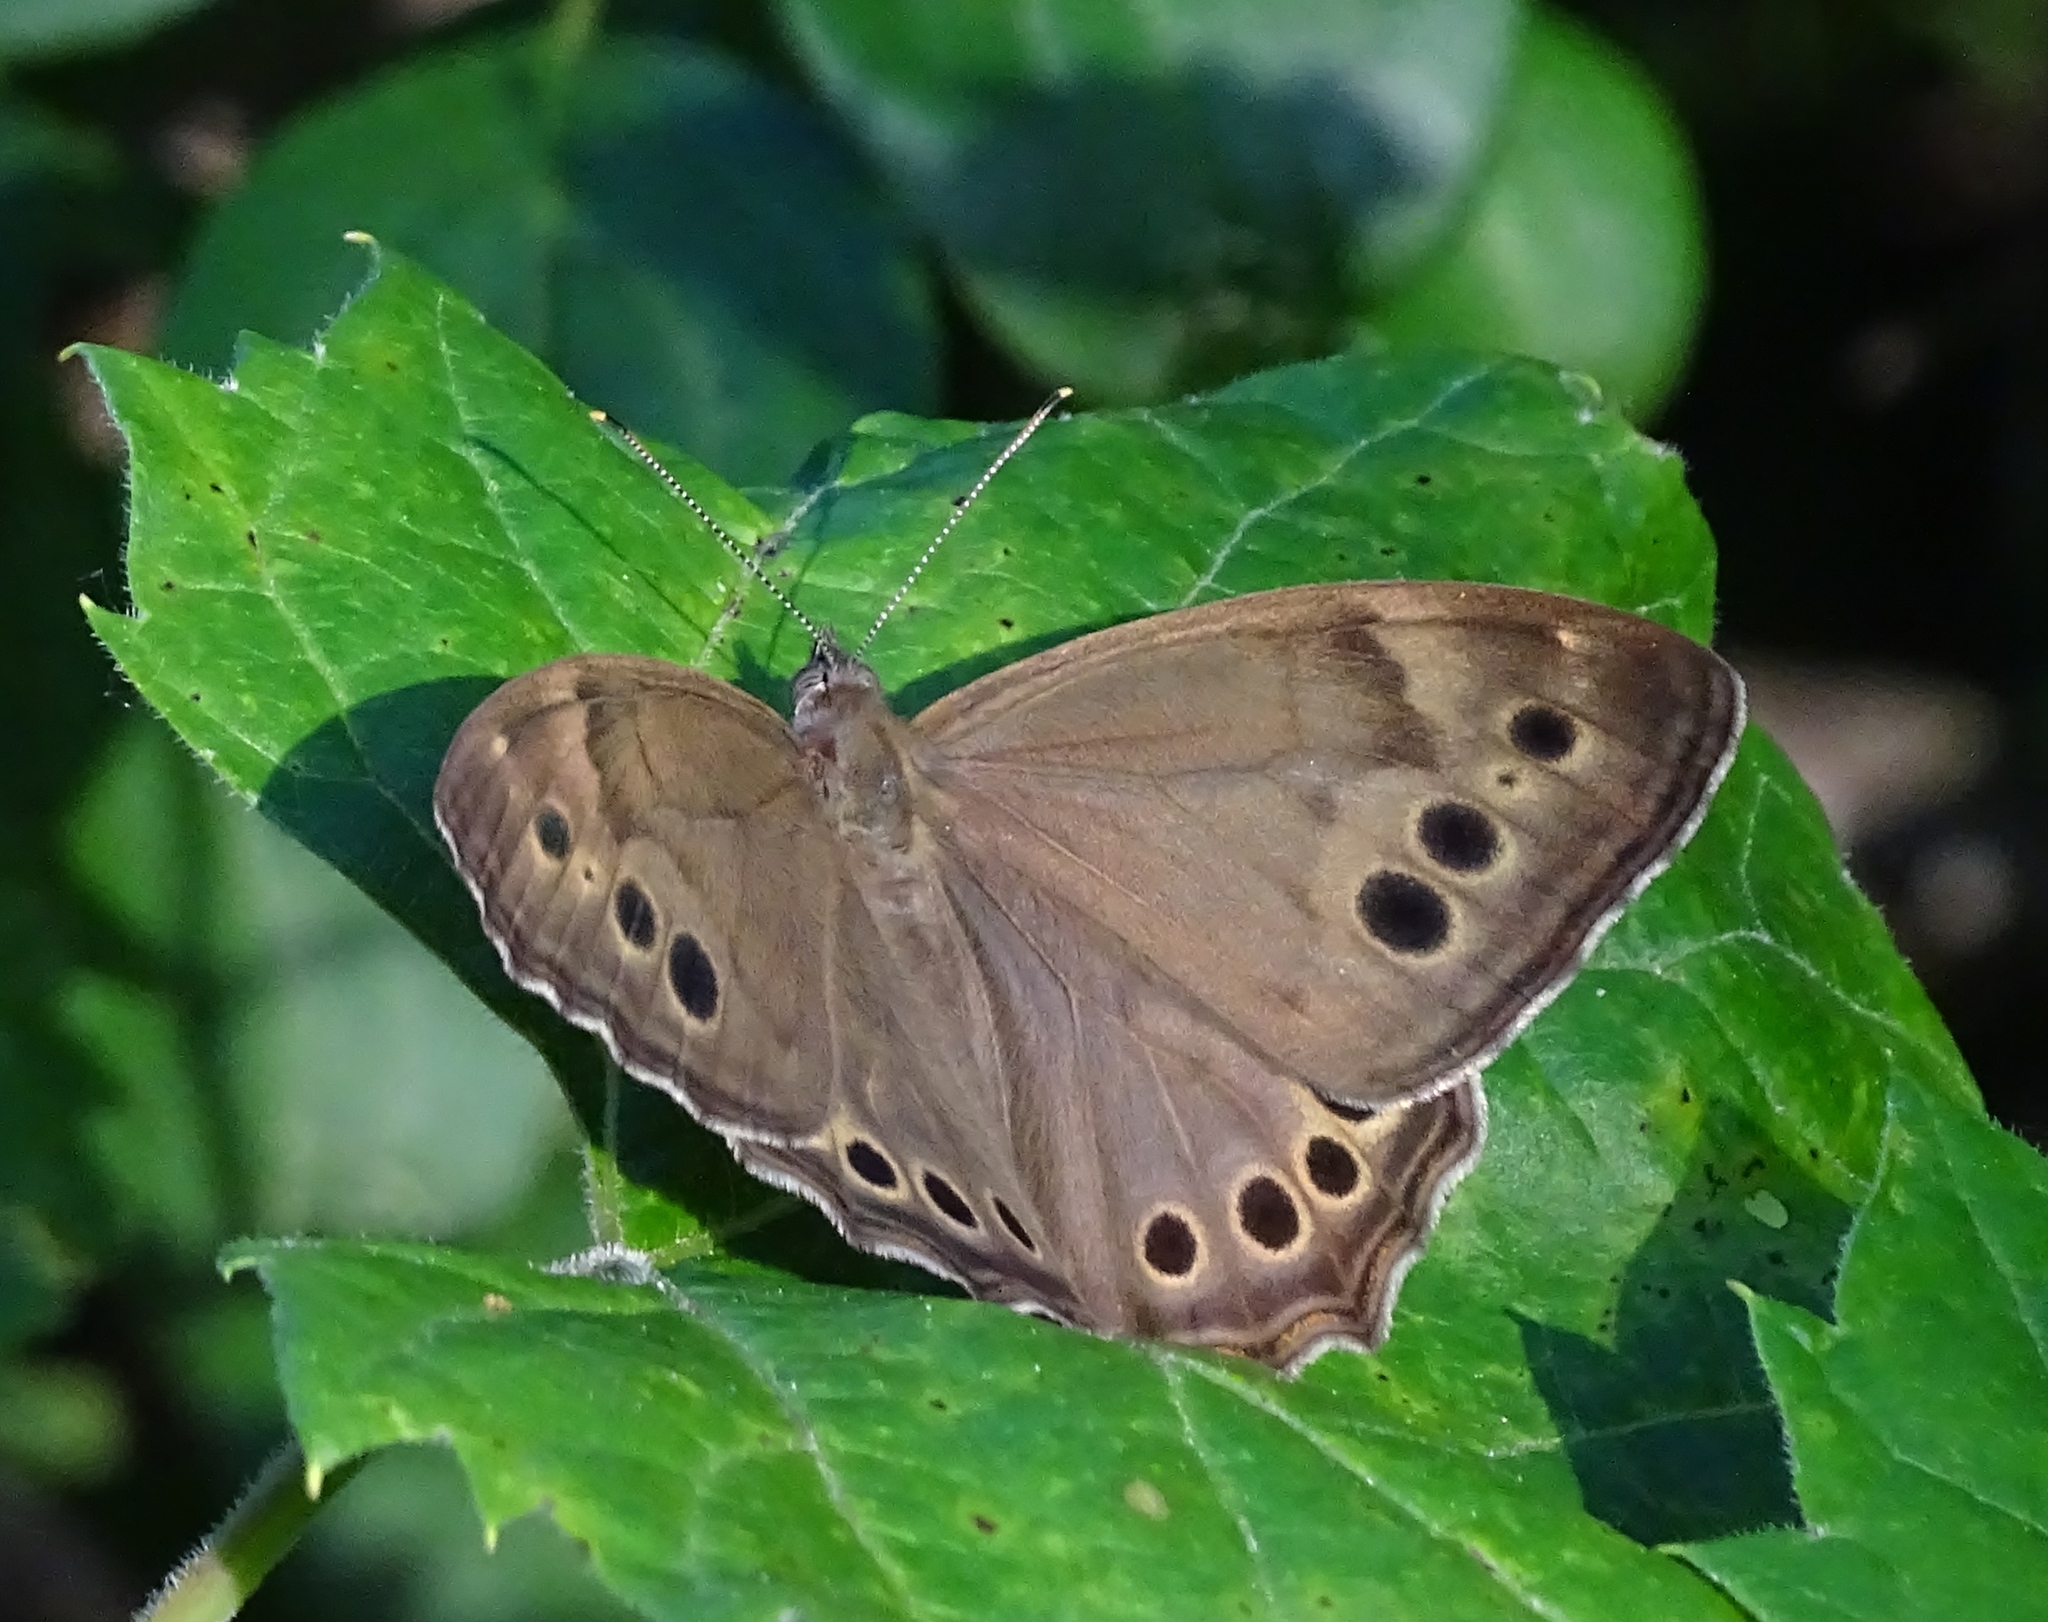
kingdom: Animalia
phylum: Arthropoda
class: Insecta
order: Lepidoptera
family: Nymphalidae
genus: Lethe
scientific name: Lethe anthedon
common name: Northern pearly-eye
